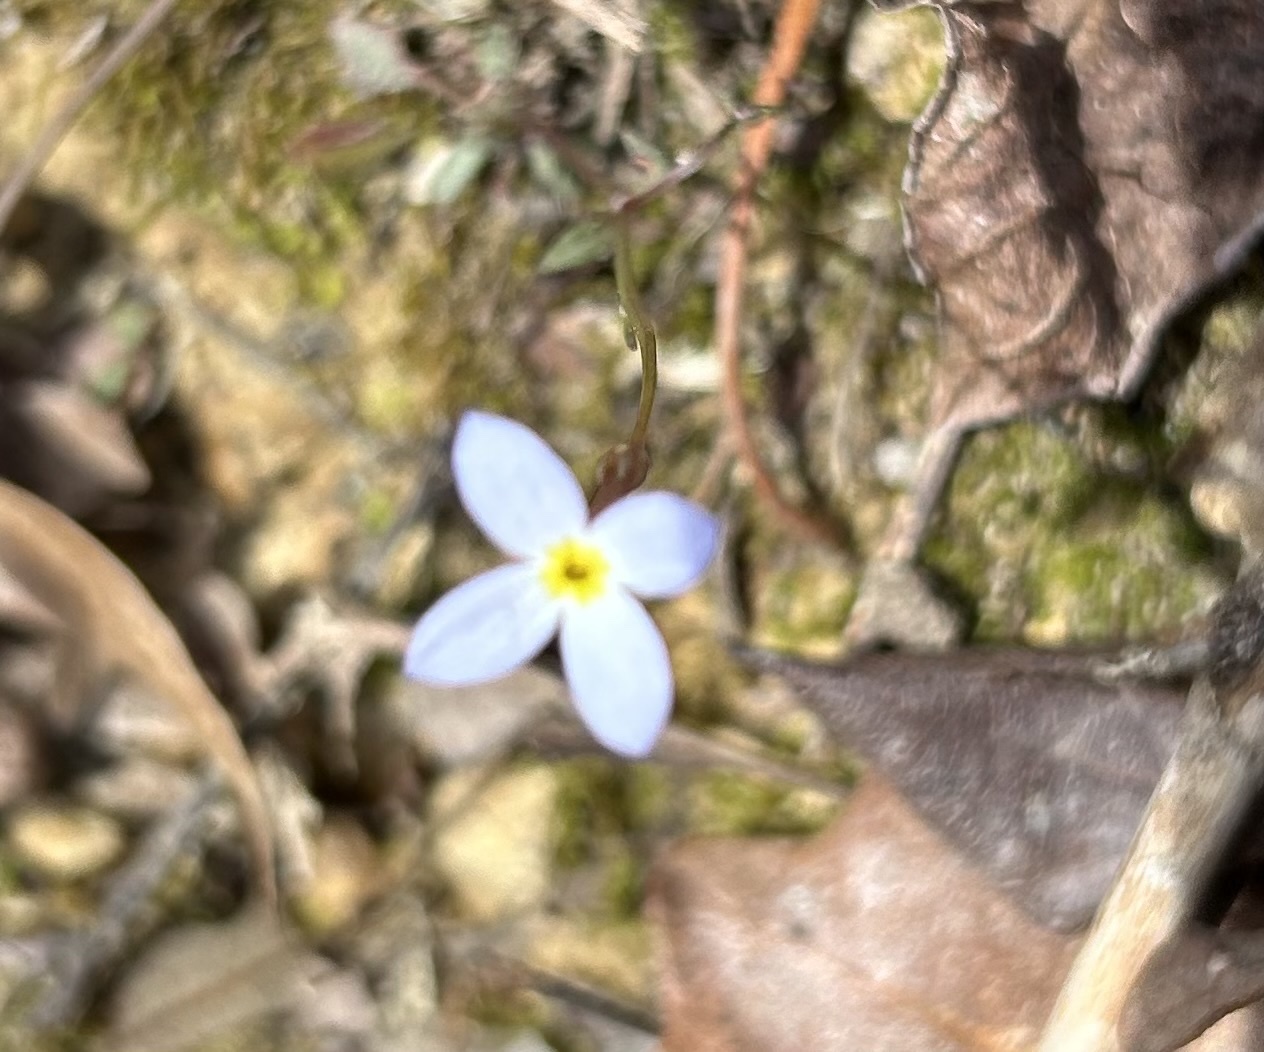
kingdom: Plantae
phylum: Tracheophyta
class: Magnoliopsida
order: Gentianales
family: Rubiaceae
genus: Houstonia
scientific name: Houstonia caerulea
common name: Bluets
